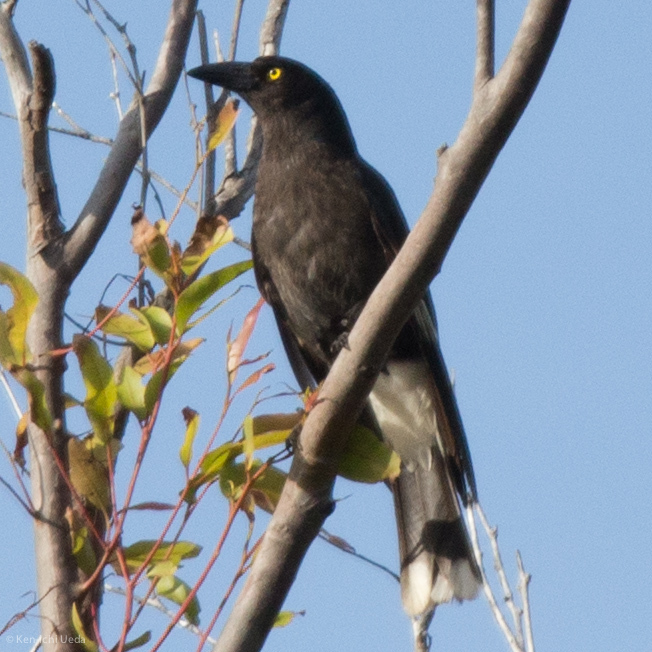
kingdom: Animalia
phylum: Chordata
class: Aves
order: Passeriformes
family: Cracticidae
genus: Strepera
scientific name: Strepera graculina
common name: Pied currawong
